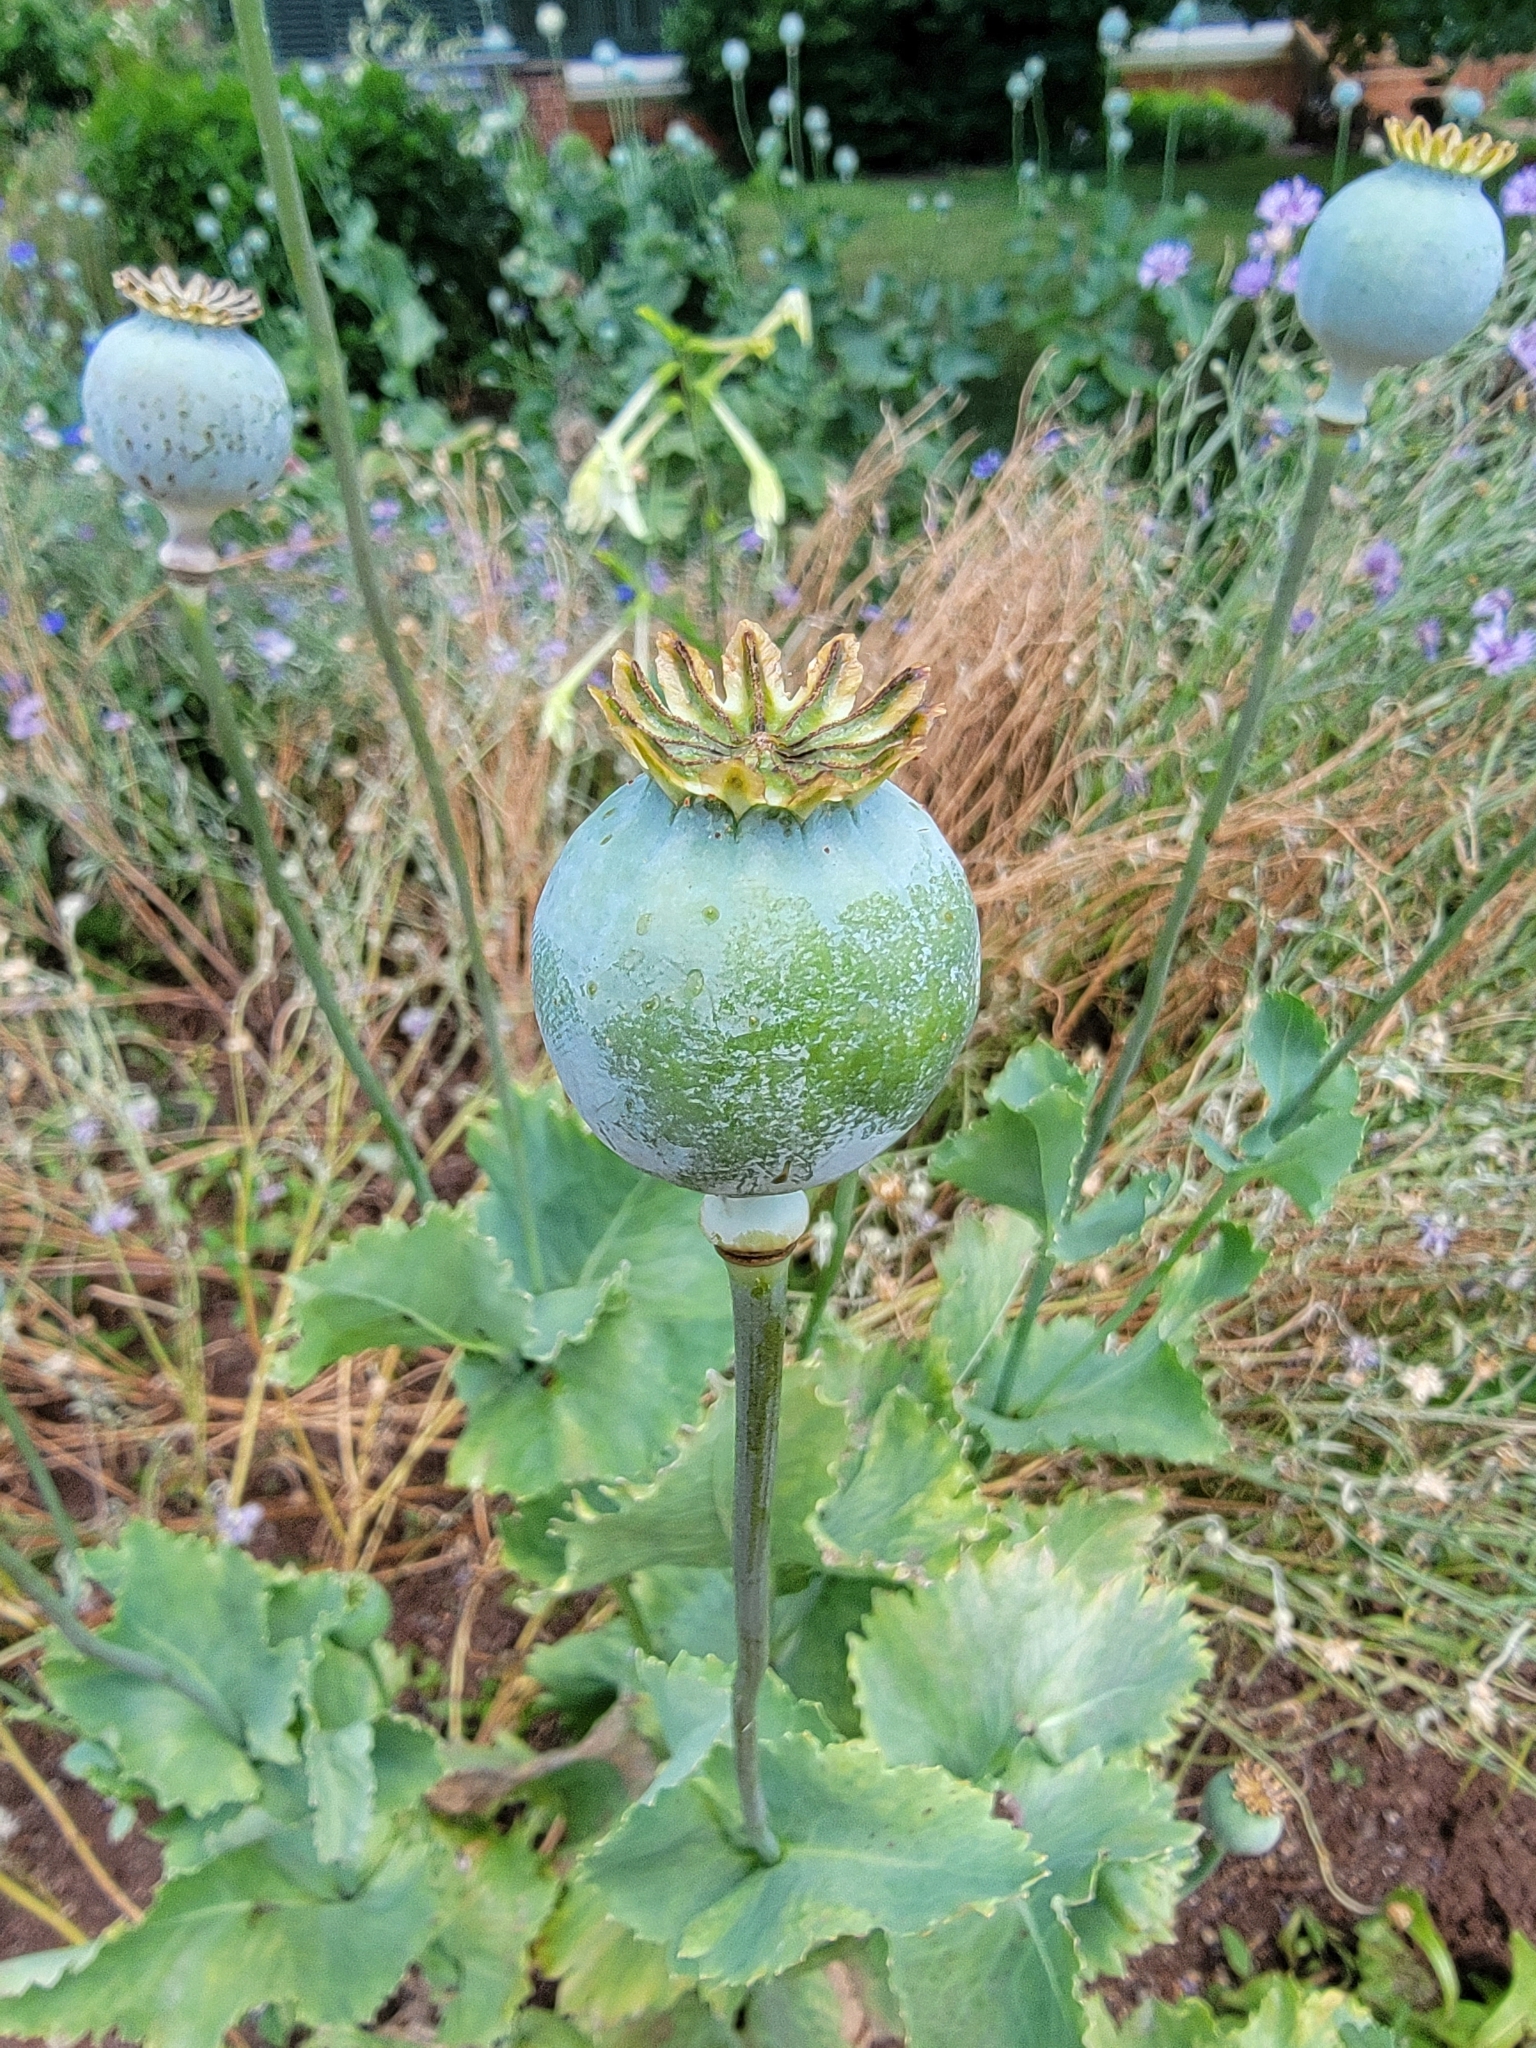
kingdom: Plantae
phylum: Tracheophyta
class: Magnoliopsida
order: Ranunculales
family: Papaveraceae
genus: Papaver
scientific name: Papaver somniferum
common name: Opium poppy
